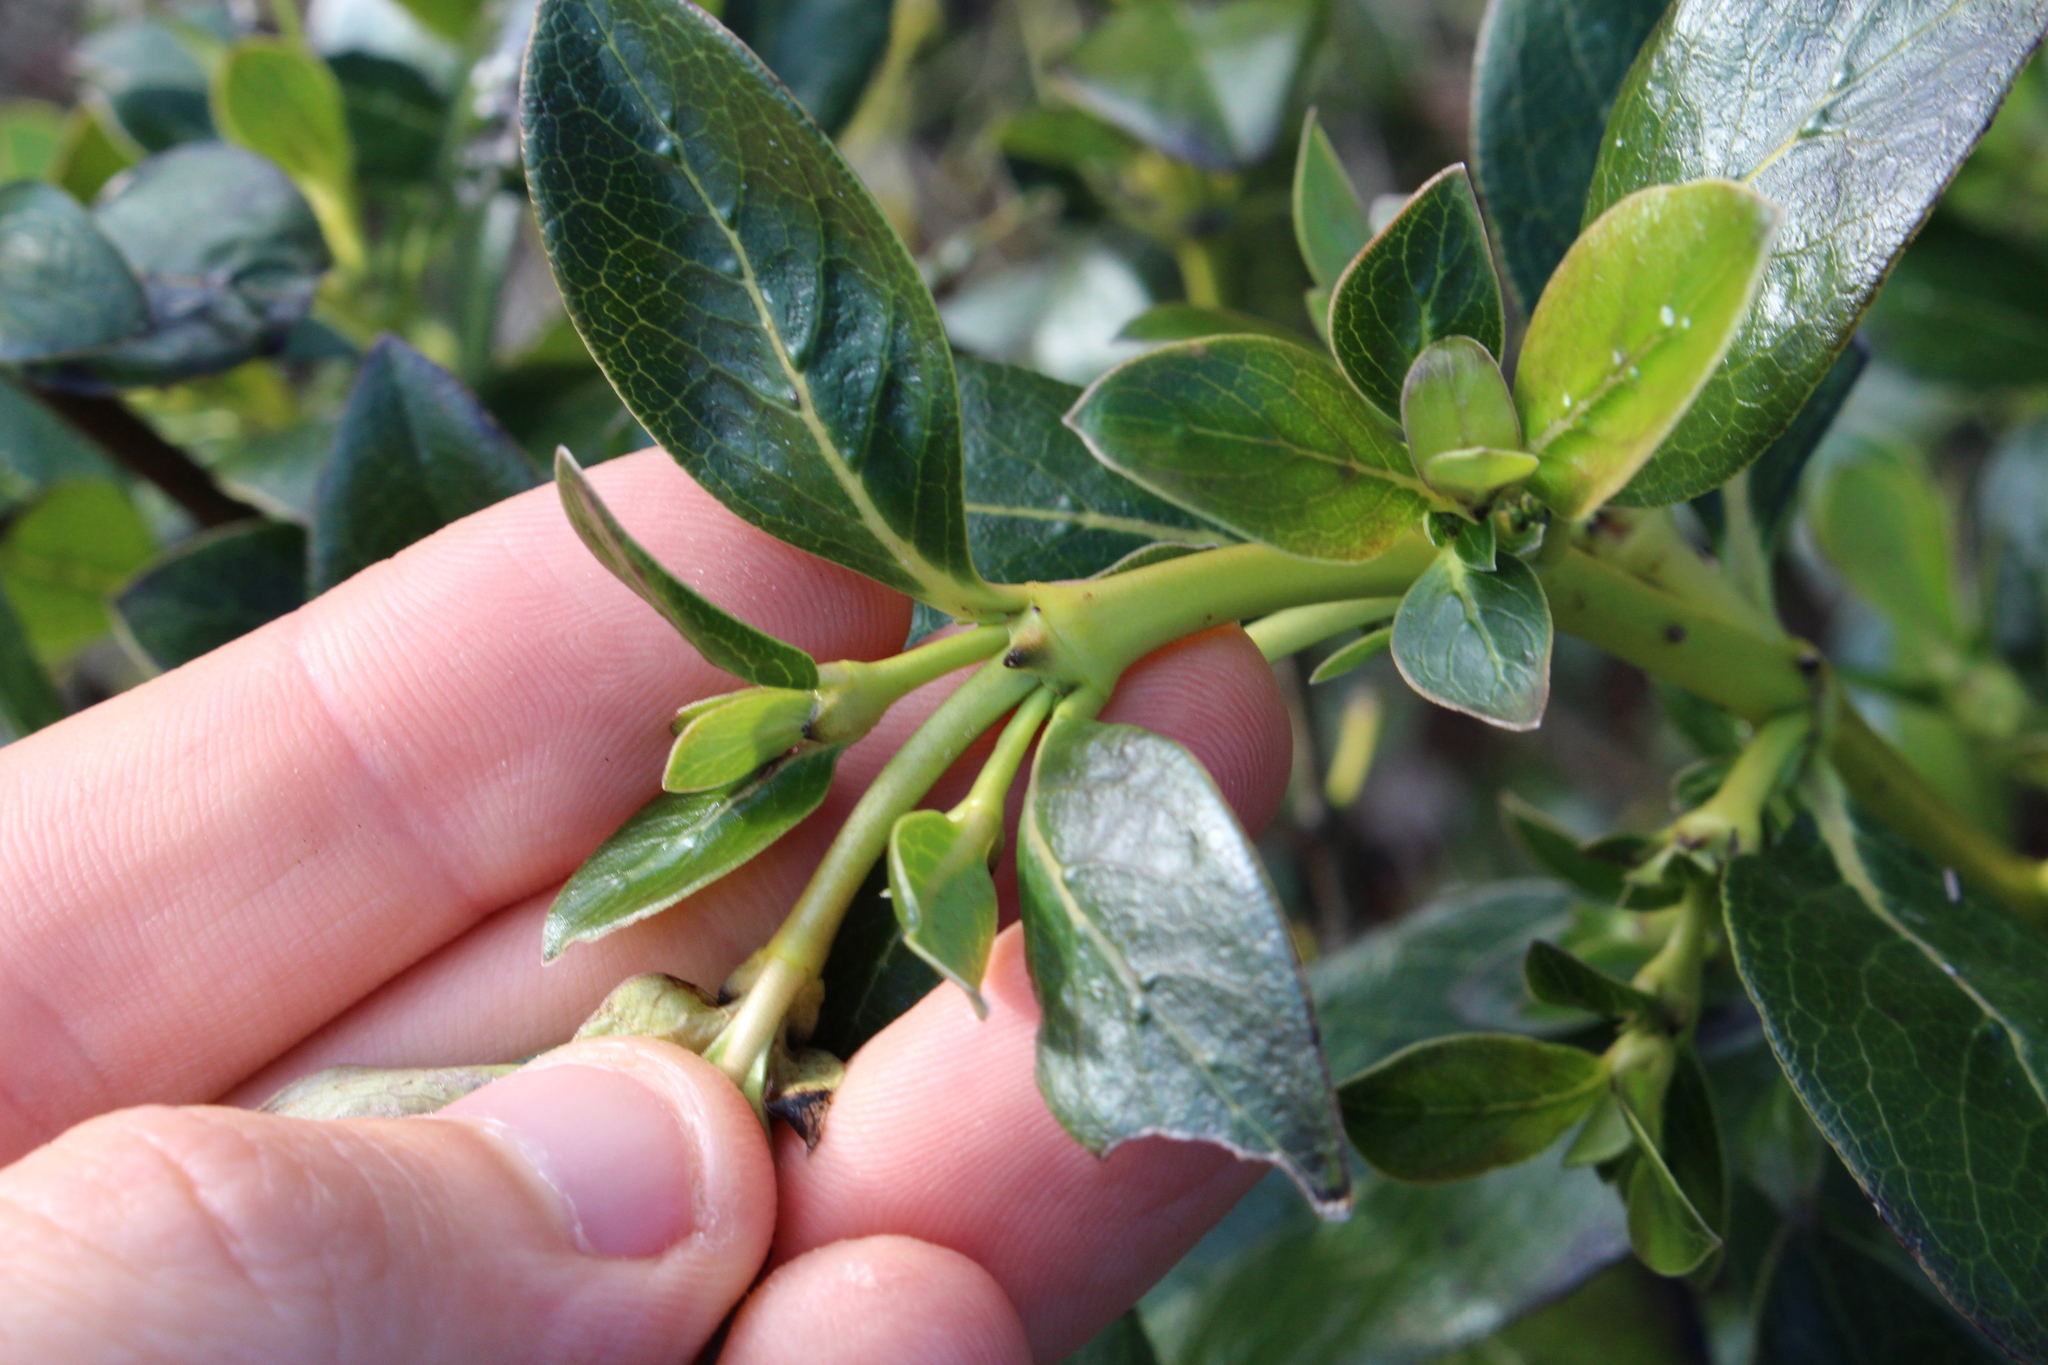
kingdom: Plantae
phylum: Tracheophyta
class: Magnoliopsida
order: Gentianales
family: Rubiaceae
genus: Coprosma
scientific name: Coprosma robusta
